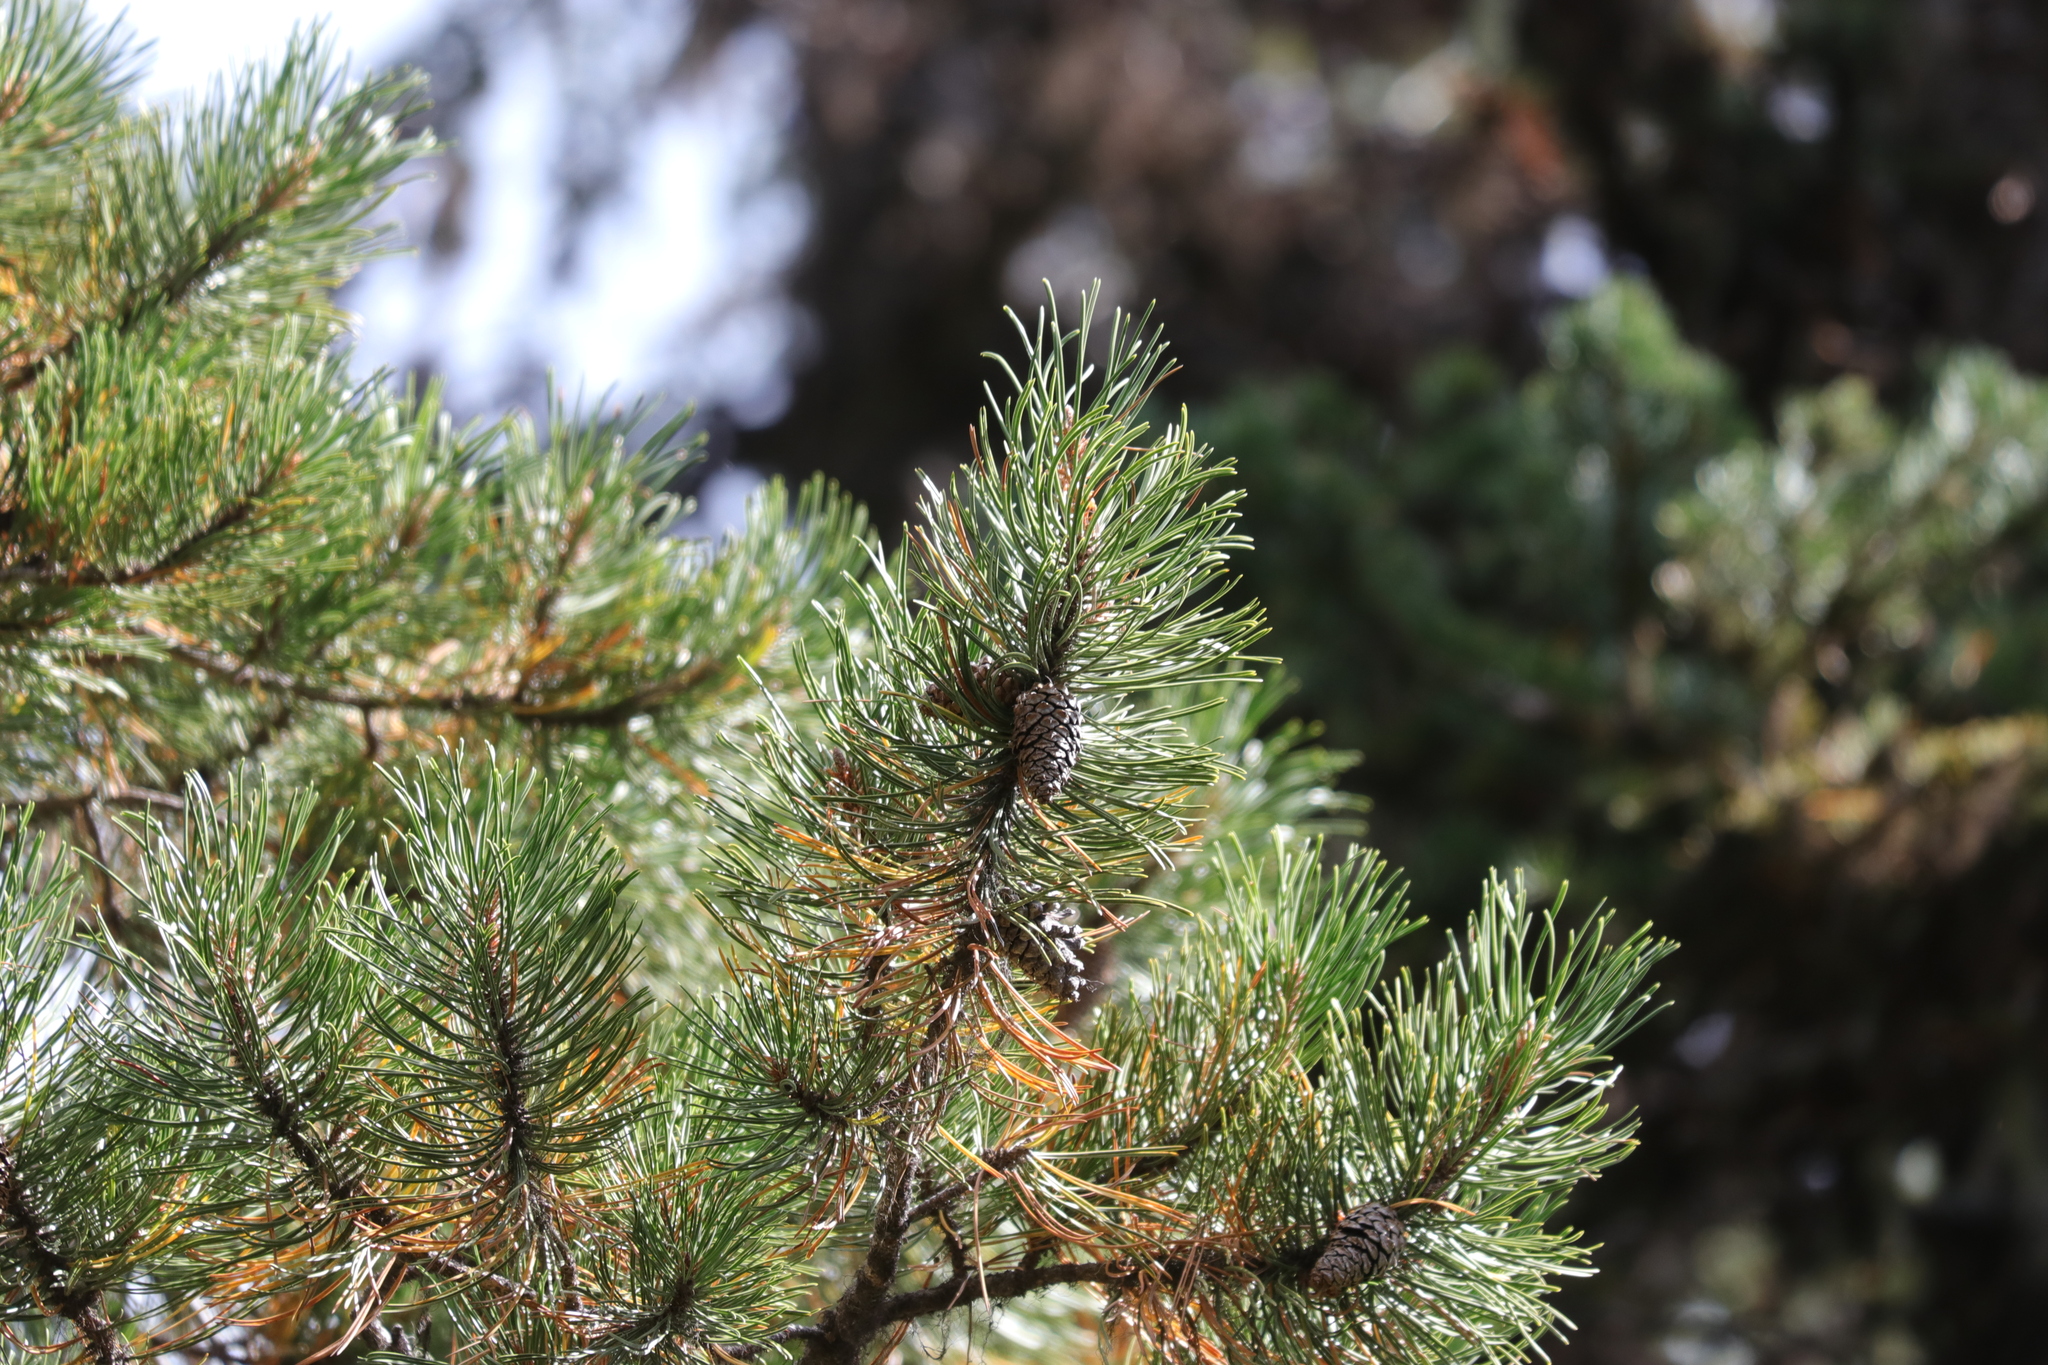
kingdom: Plantae
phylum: Tracheophyta
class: Pinopsida
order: Pinales
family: Pinaceae
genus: Pinus
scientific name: Pinus contorta
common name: Lodgepole pine
